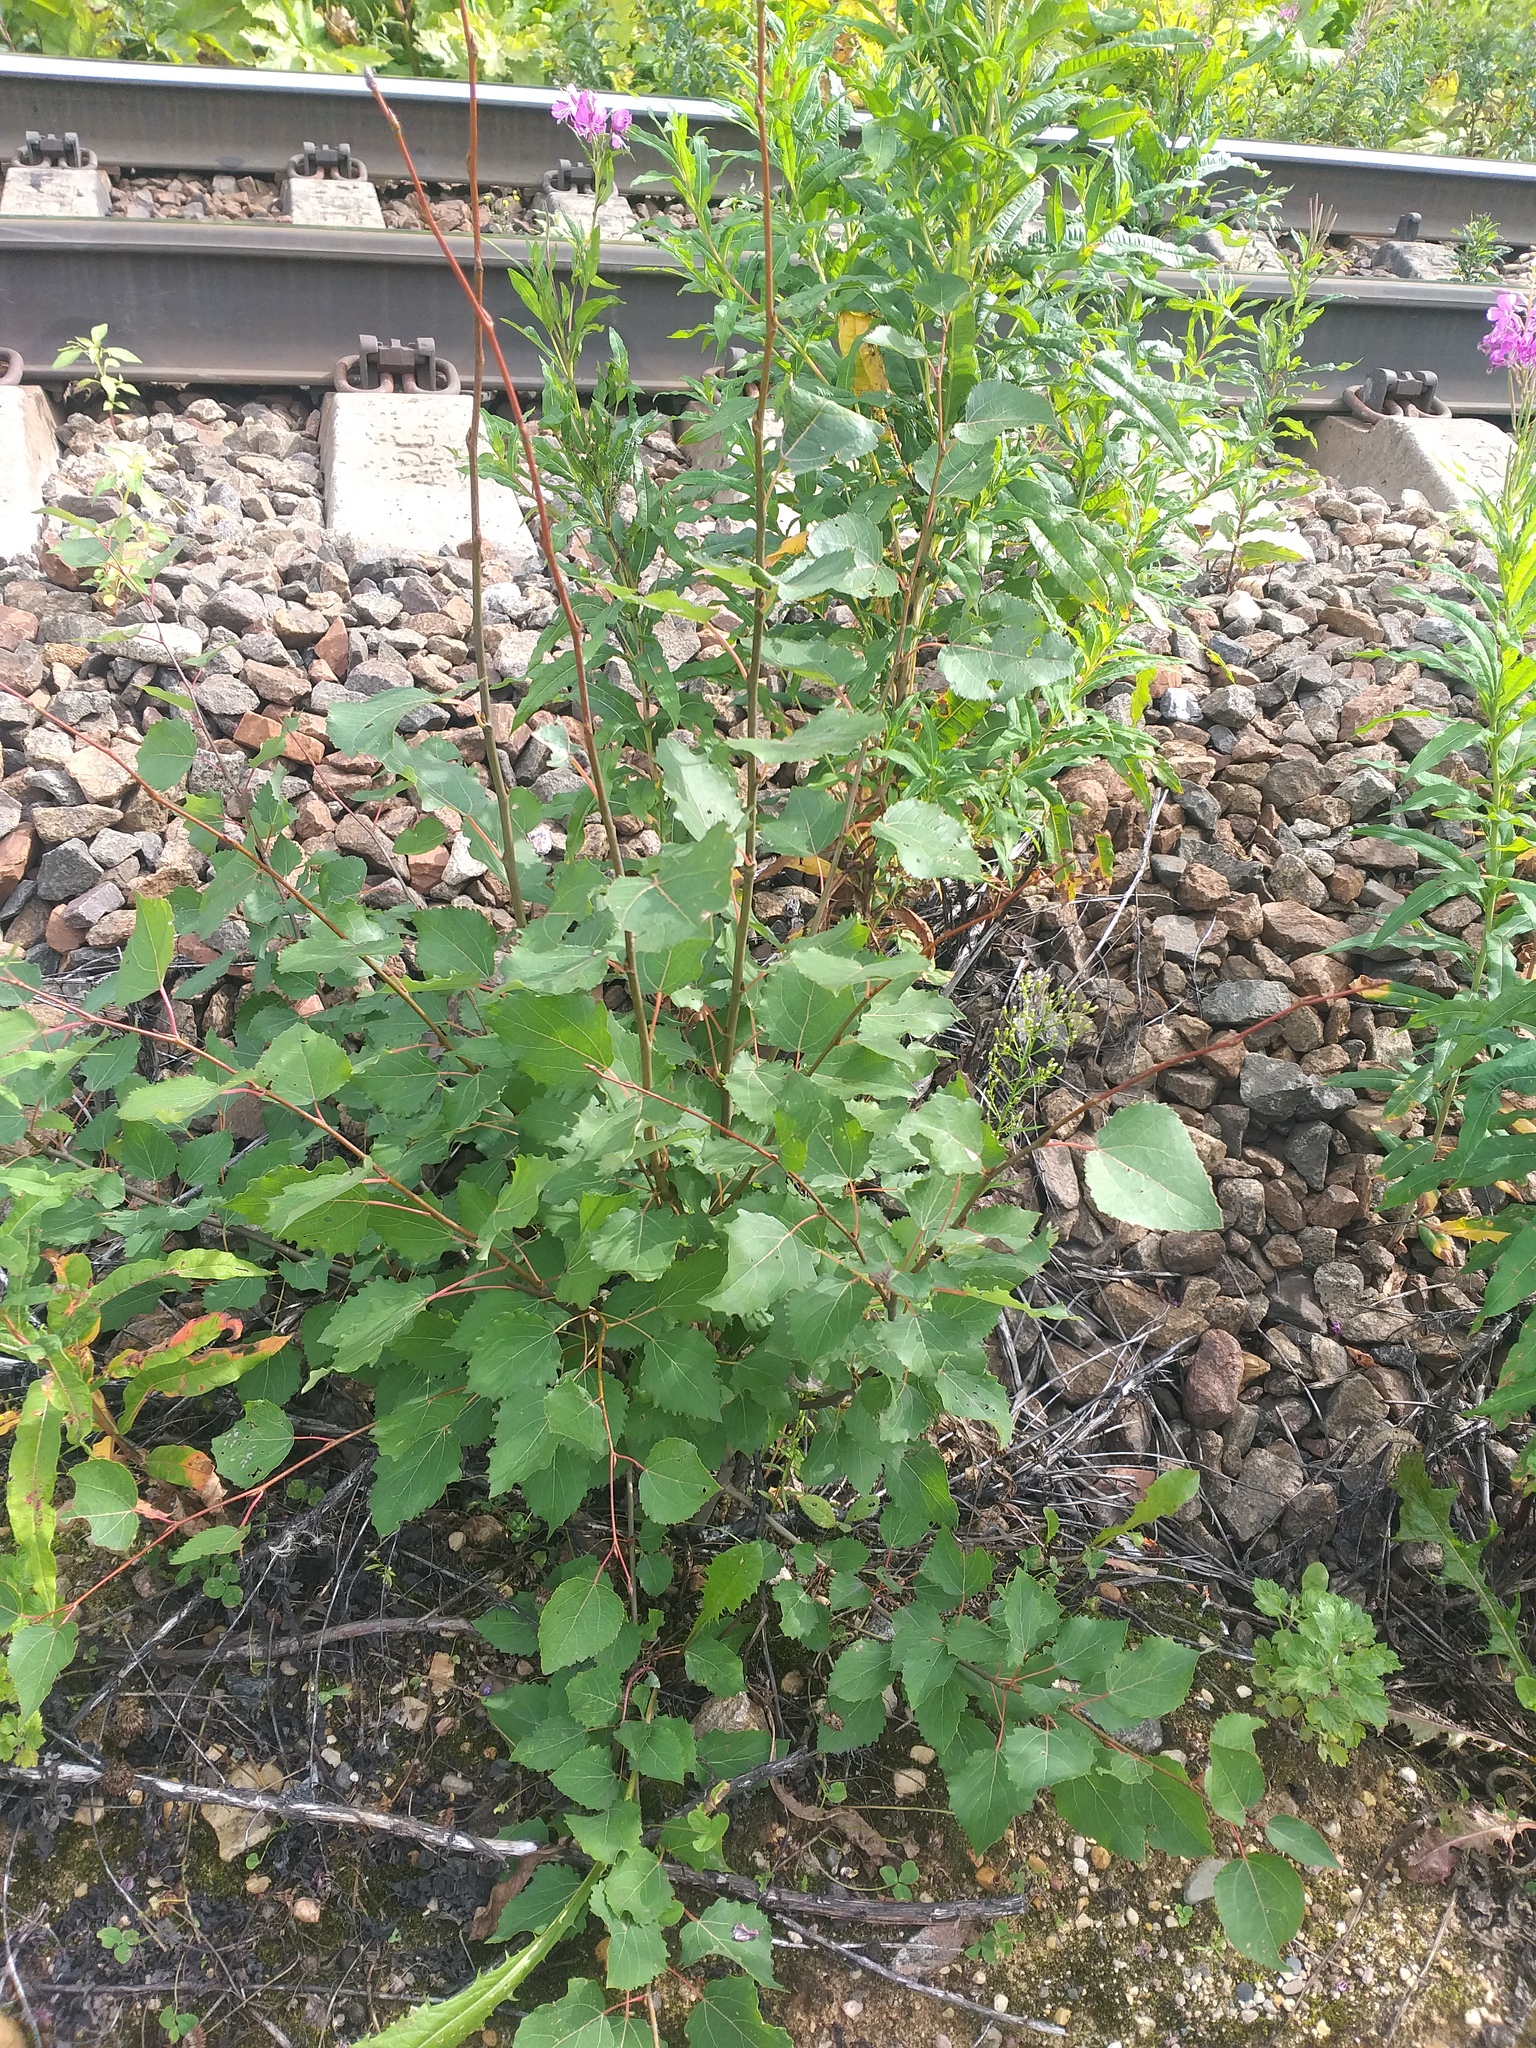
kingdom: Plantae
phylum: Tracheophyta
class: Magnoliopsida
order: Malpighiales
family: Salicaceae
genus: Populus
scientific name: Populus tremula
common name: European aspen
